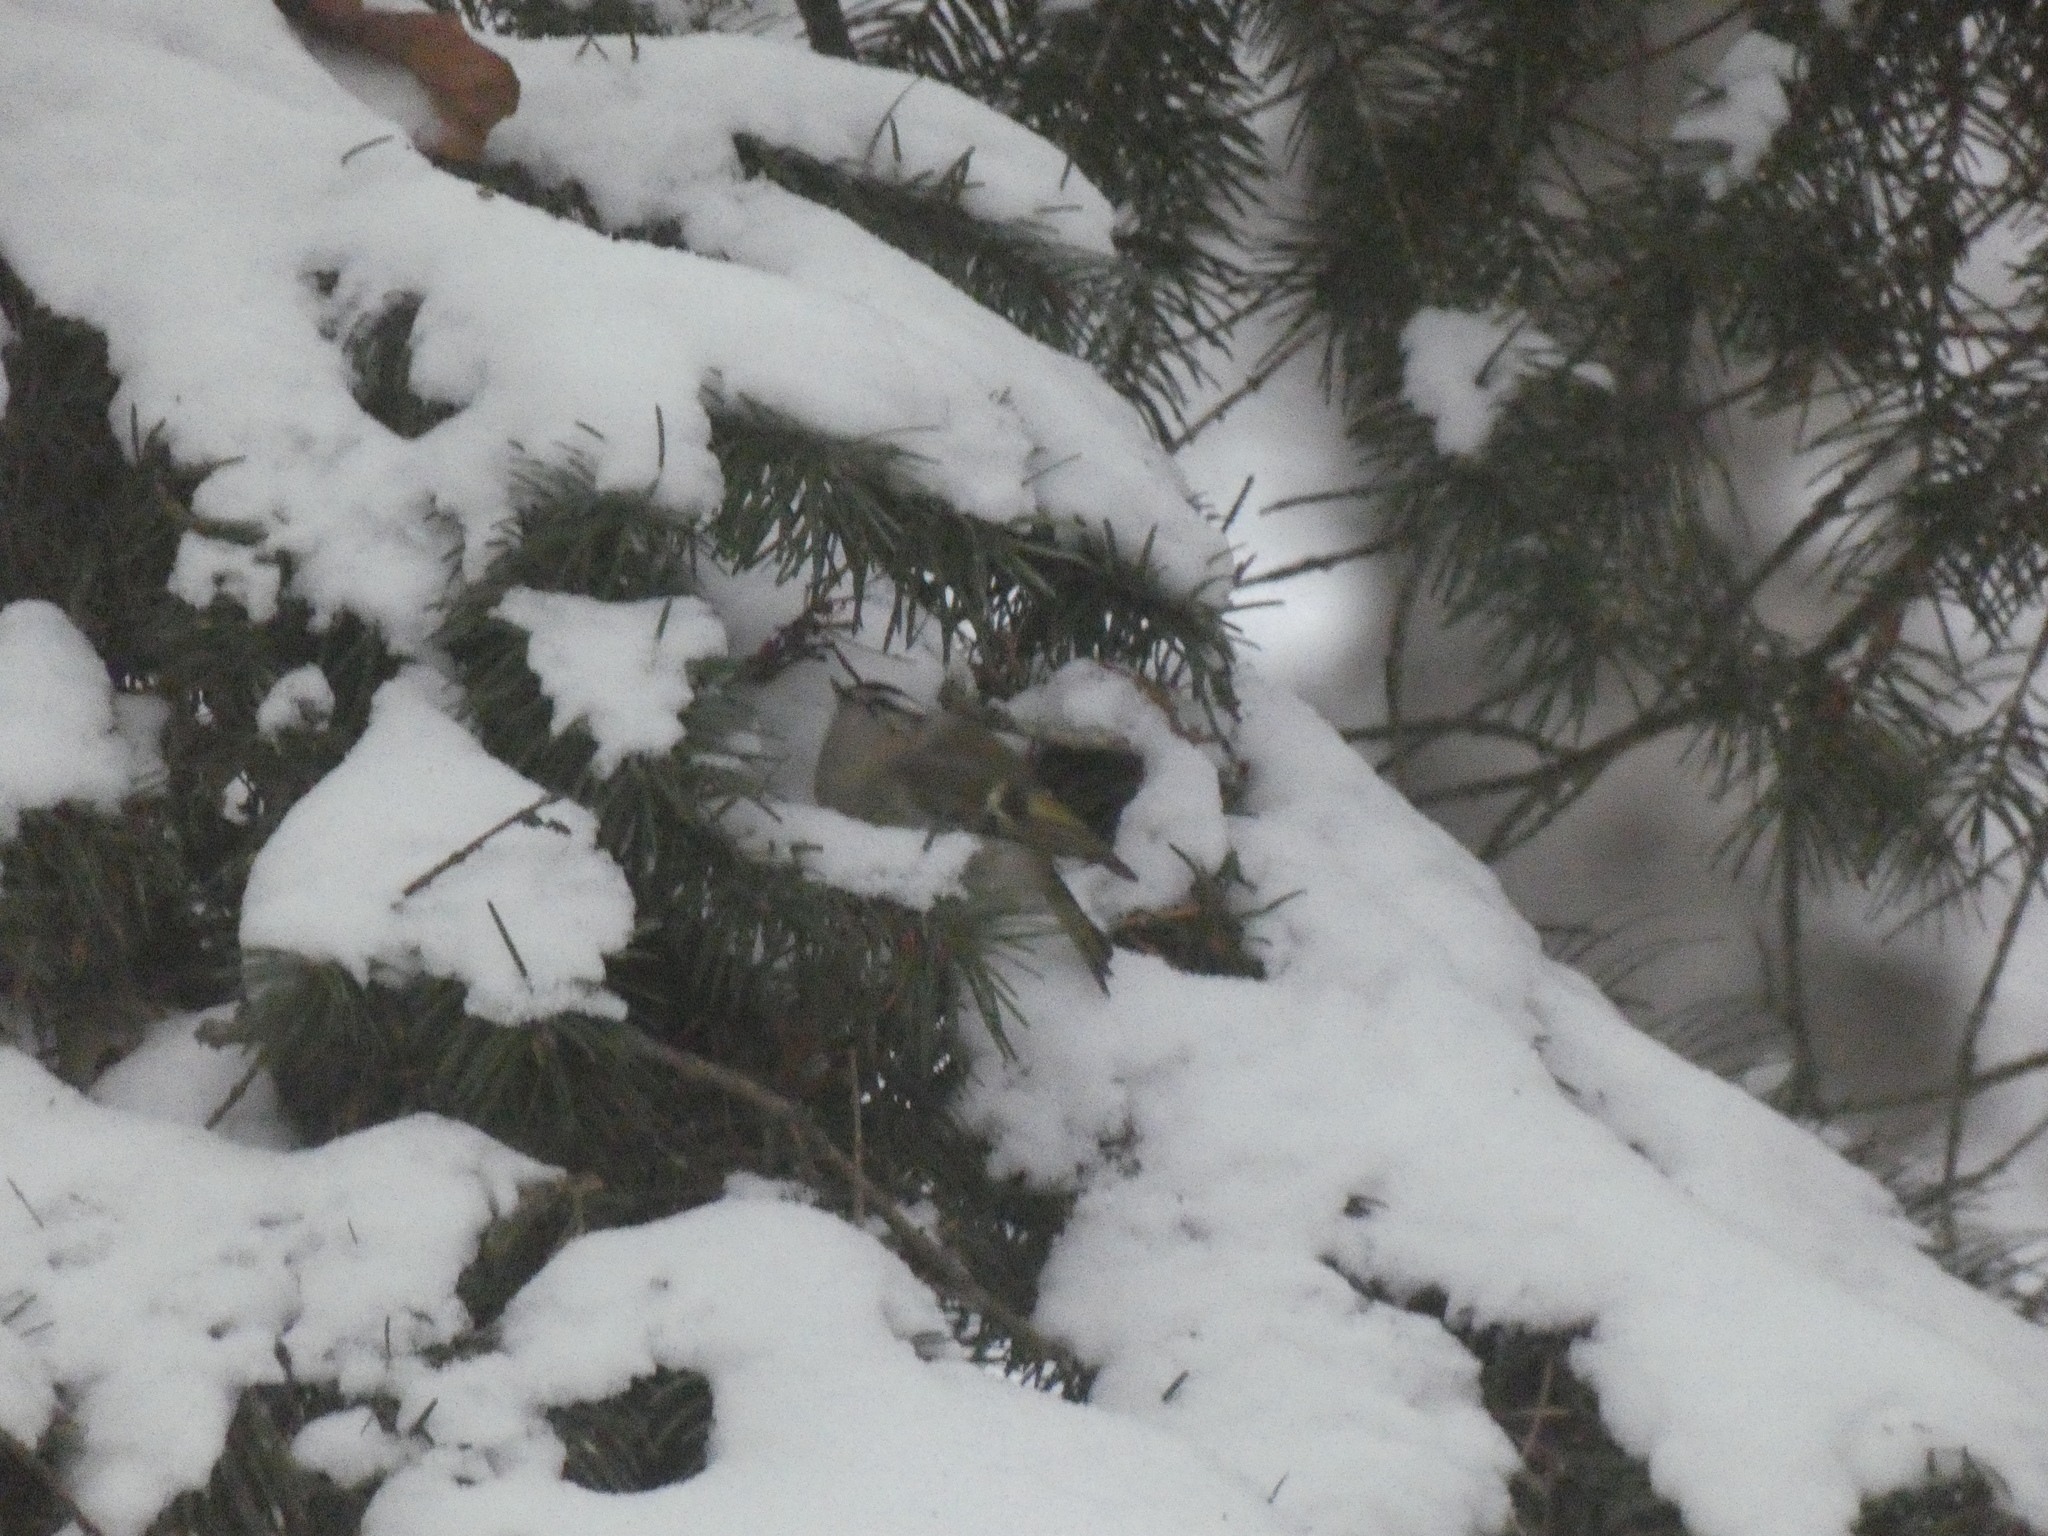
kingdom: Animalia
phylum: Chordata
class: Aves
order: Passeriformes
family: Regulidae
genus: Regulus
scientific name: Regulus satrapa
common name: Golden-crowned kinglet
